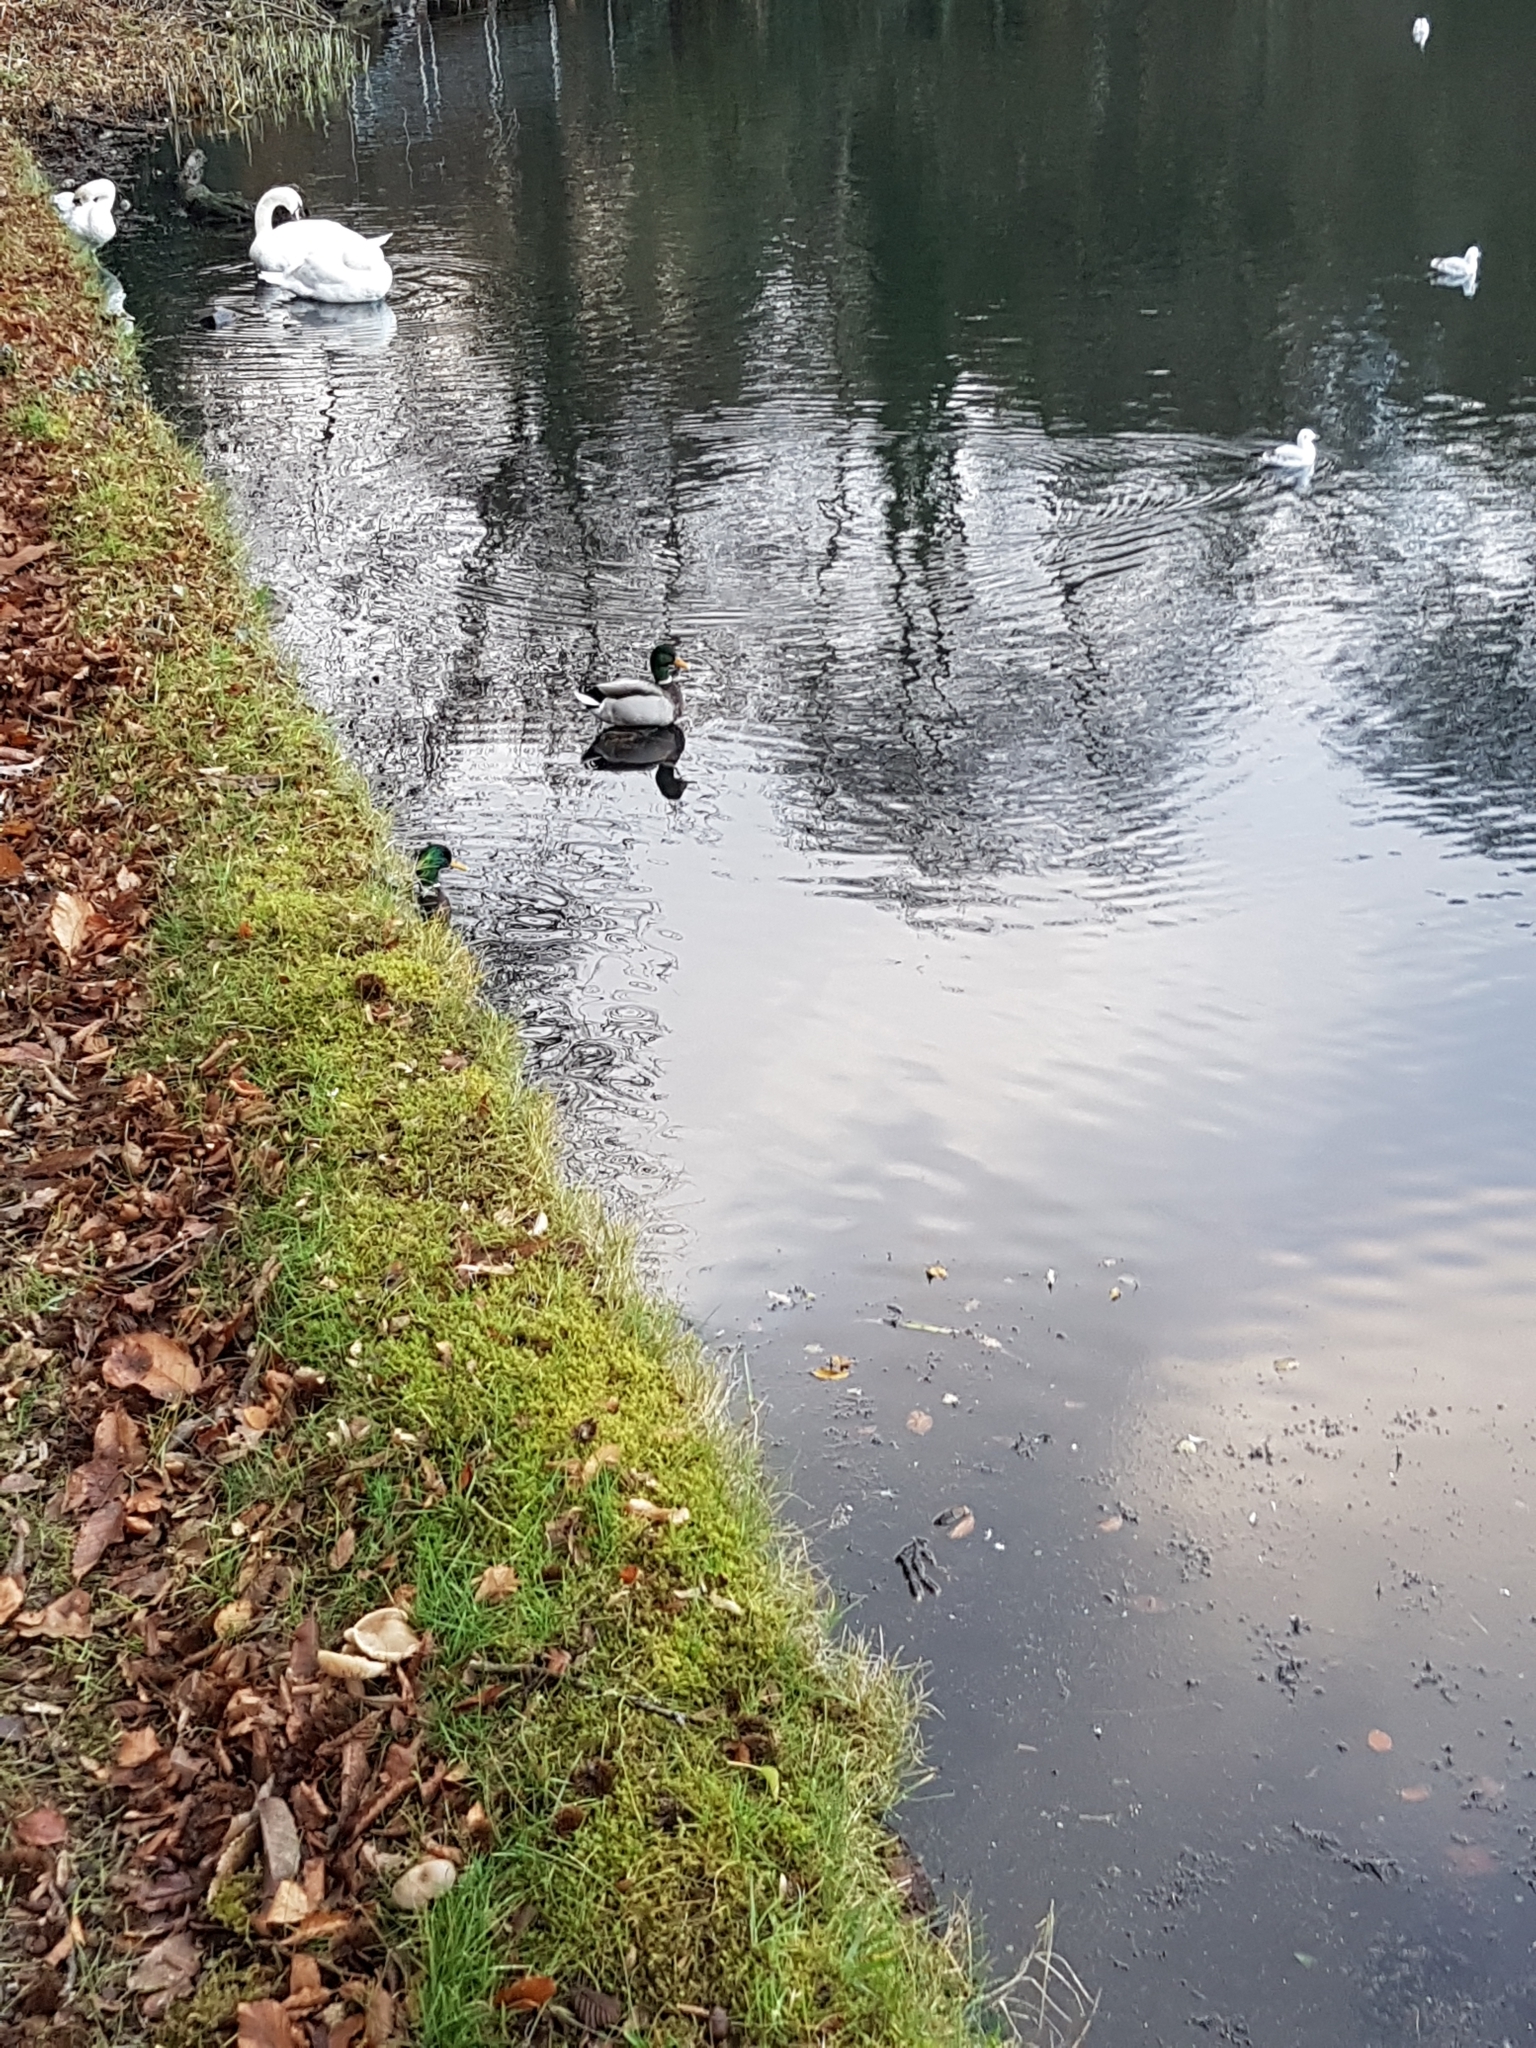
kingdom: Animalia
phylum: Chordata
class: Aves
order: Anseriformes
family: Anatidae
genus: Anas
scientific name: Anas platyrhynchos
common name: Mallard
